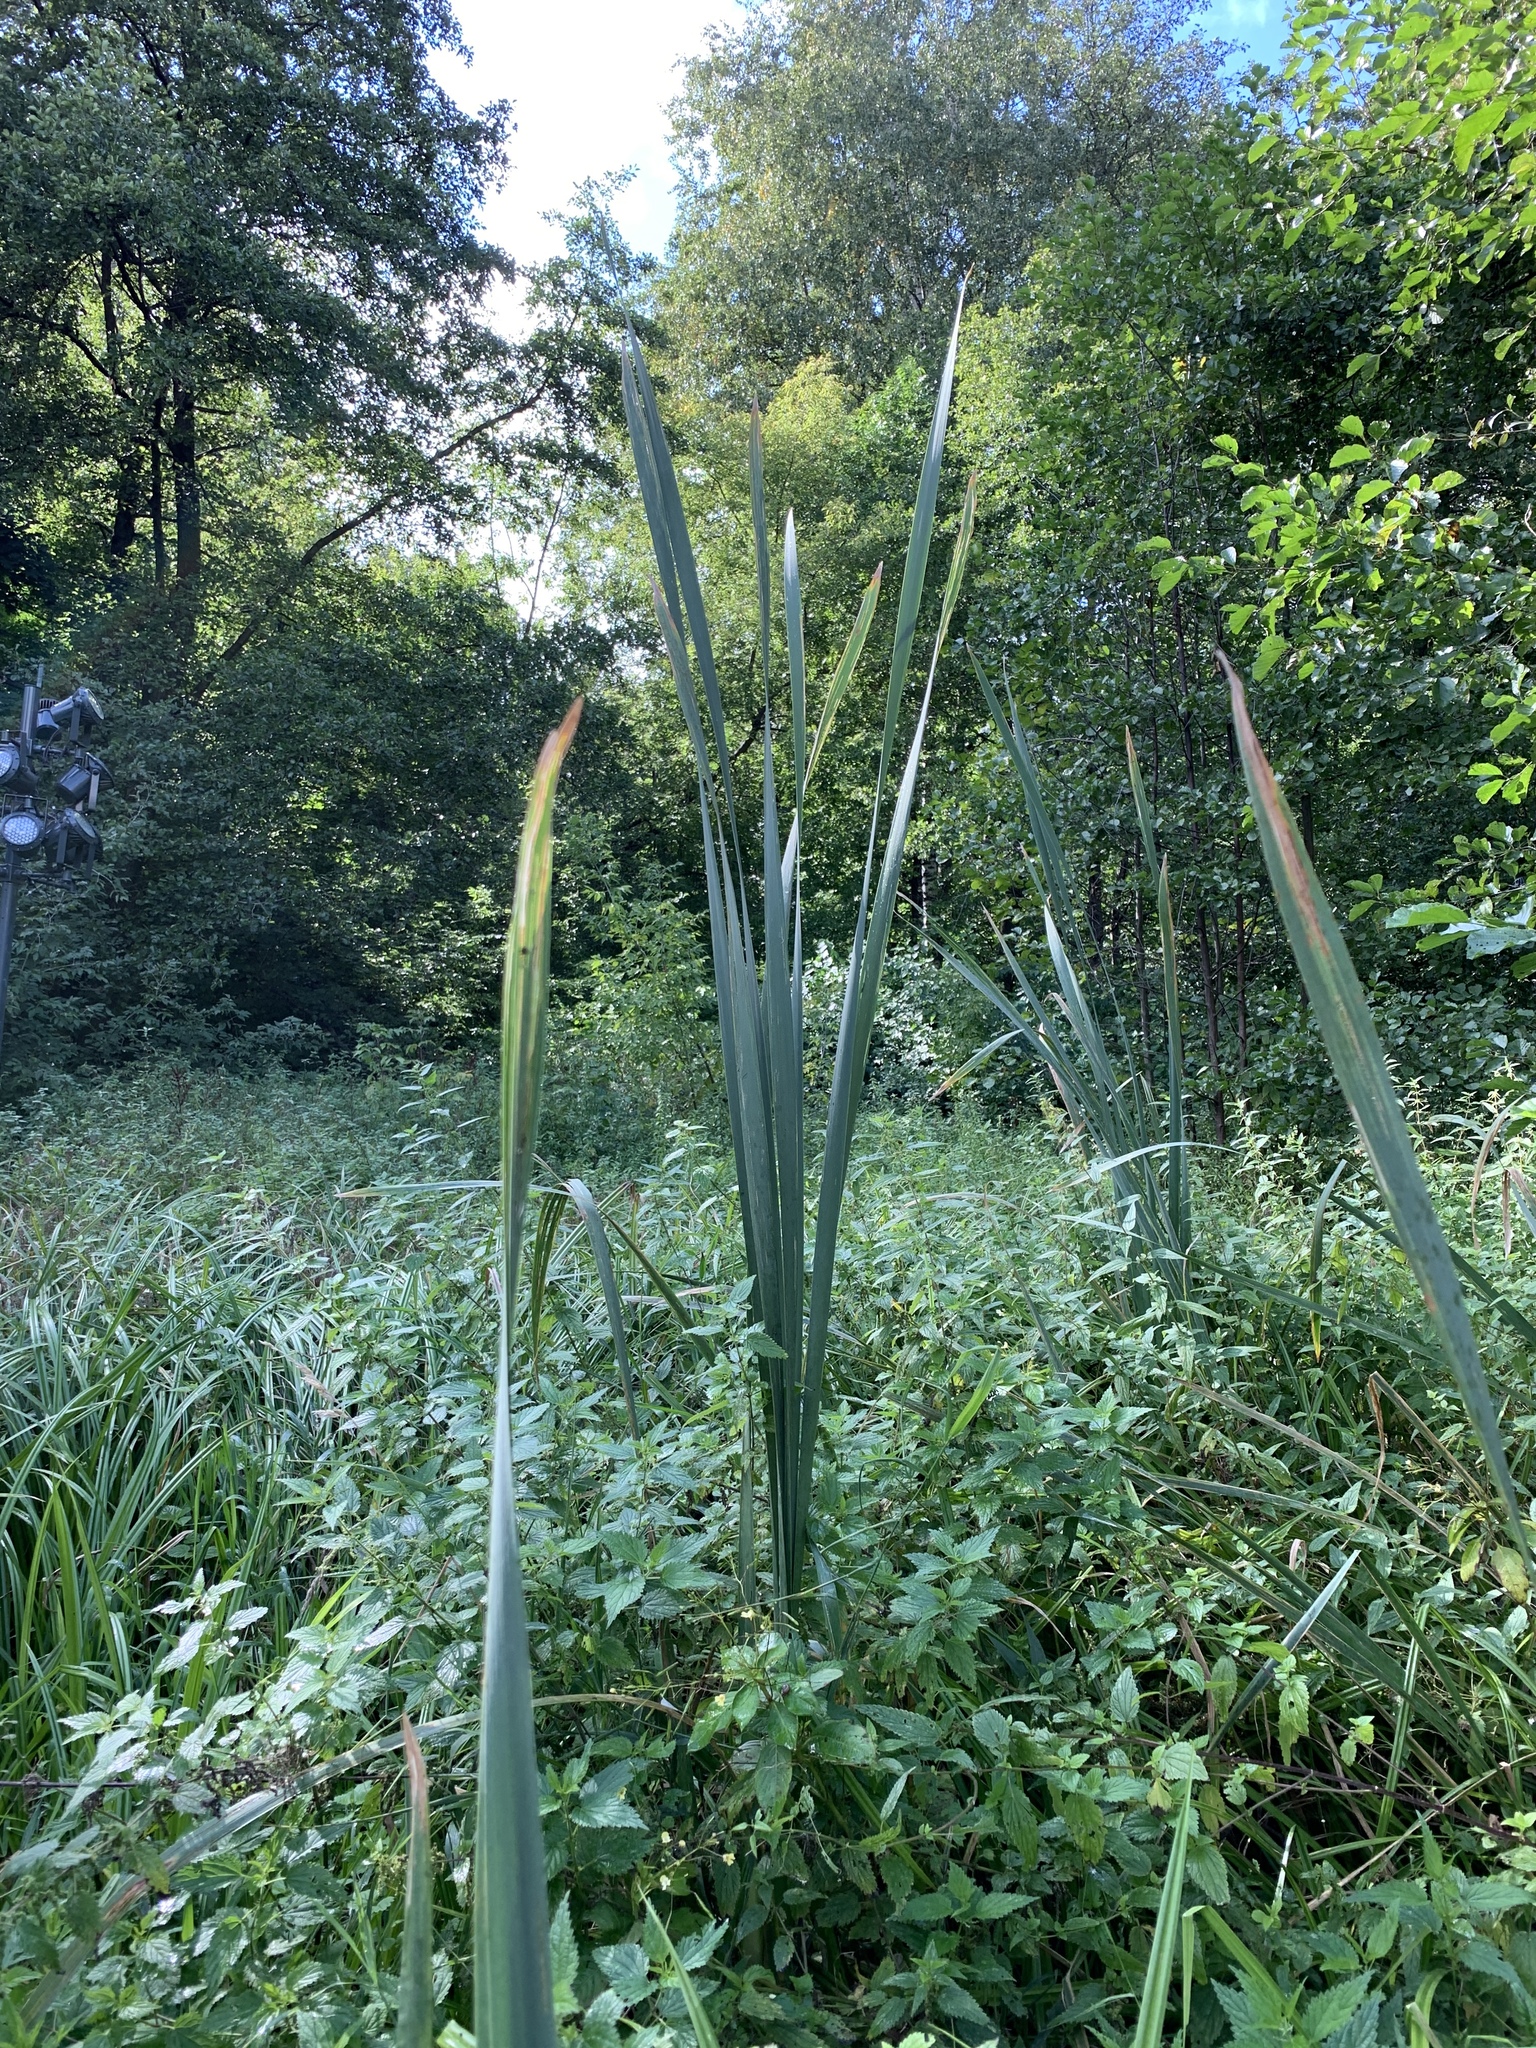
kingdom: Plantae
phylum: Tracheophyta
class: Liliopsida
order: Poales
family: Typhaceae
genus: Typha
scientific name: Typha latifolia
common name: Broadleaf cattail
